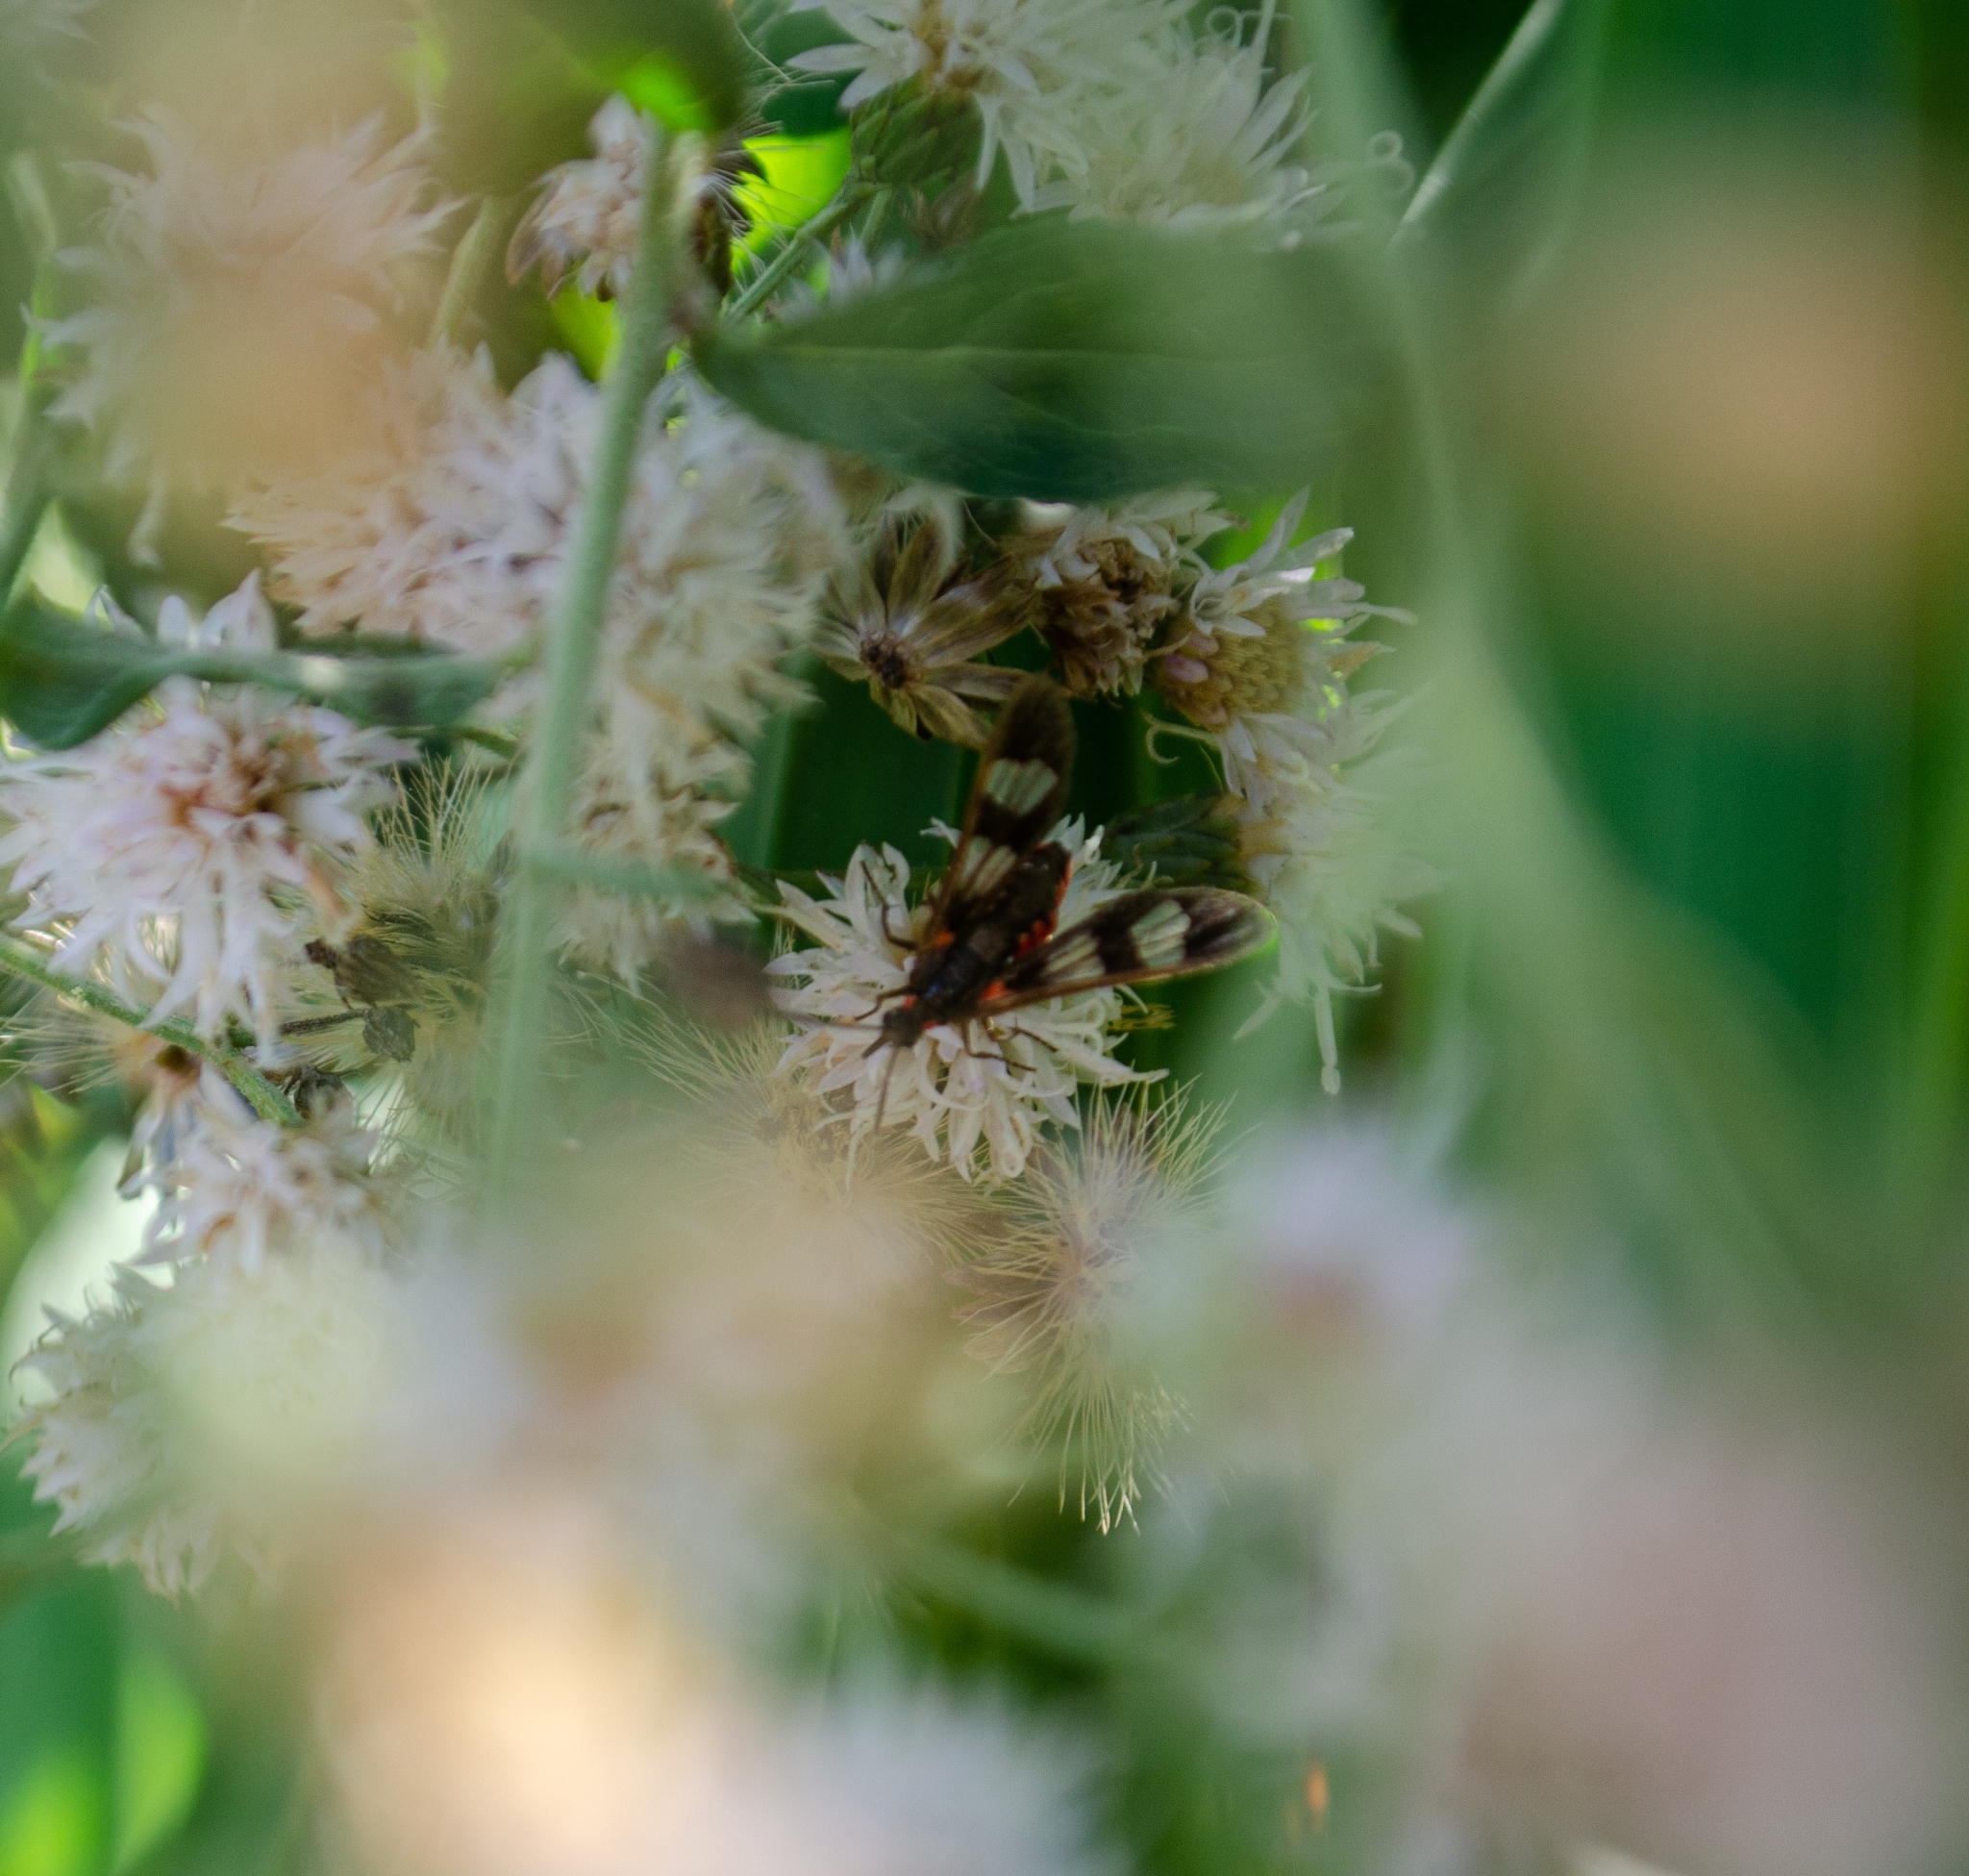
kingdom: Animalia
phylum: Arthropoda
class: Insecta
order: Lepidoptera
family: Erebidae
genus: Phoenicoprocta
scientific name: Phoenicoprocta teda
